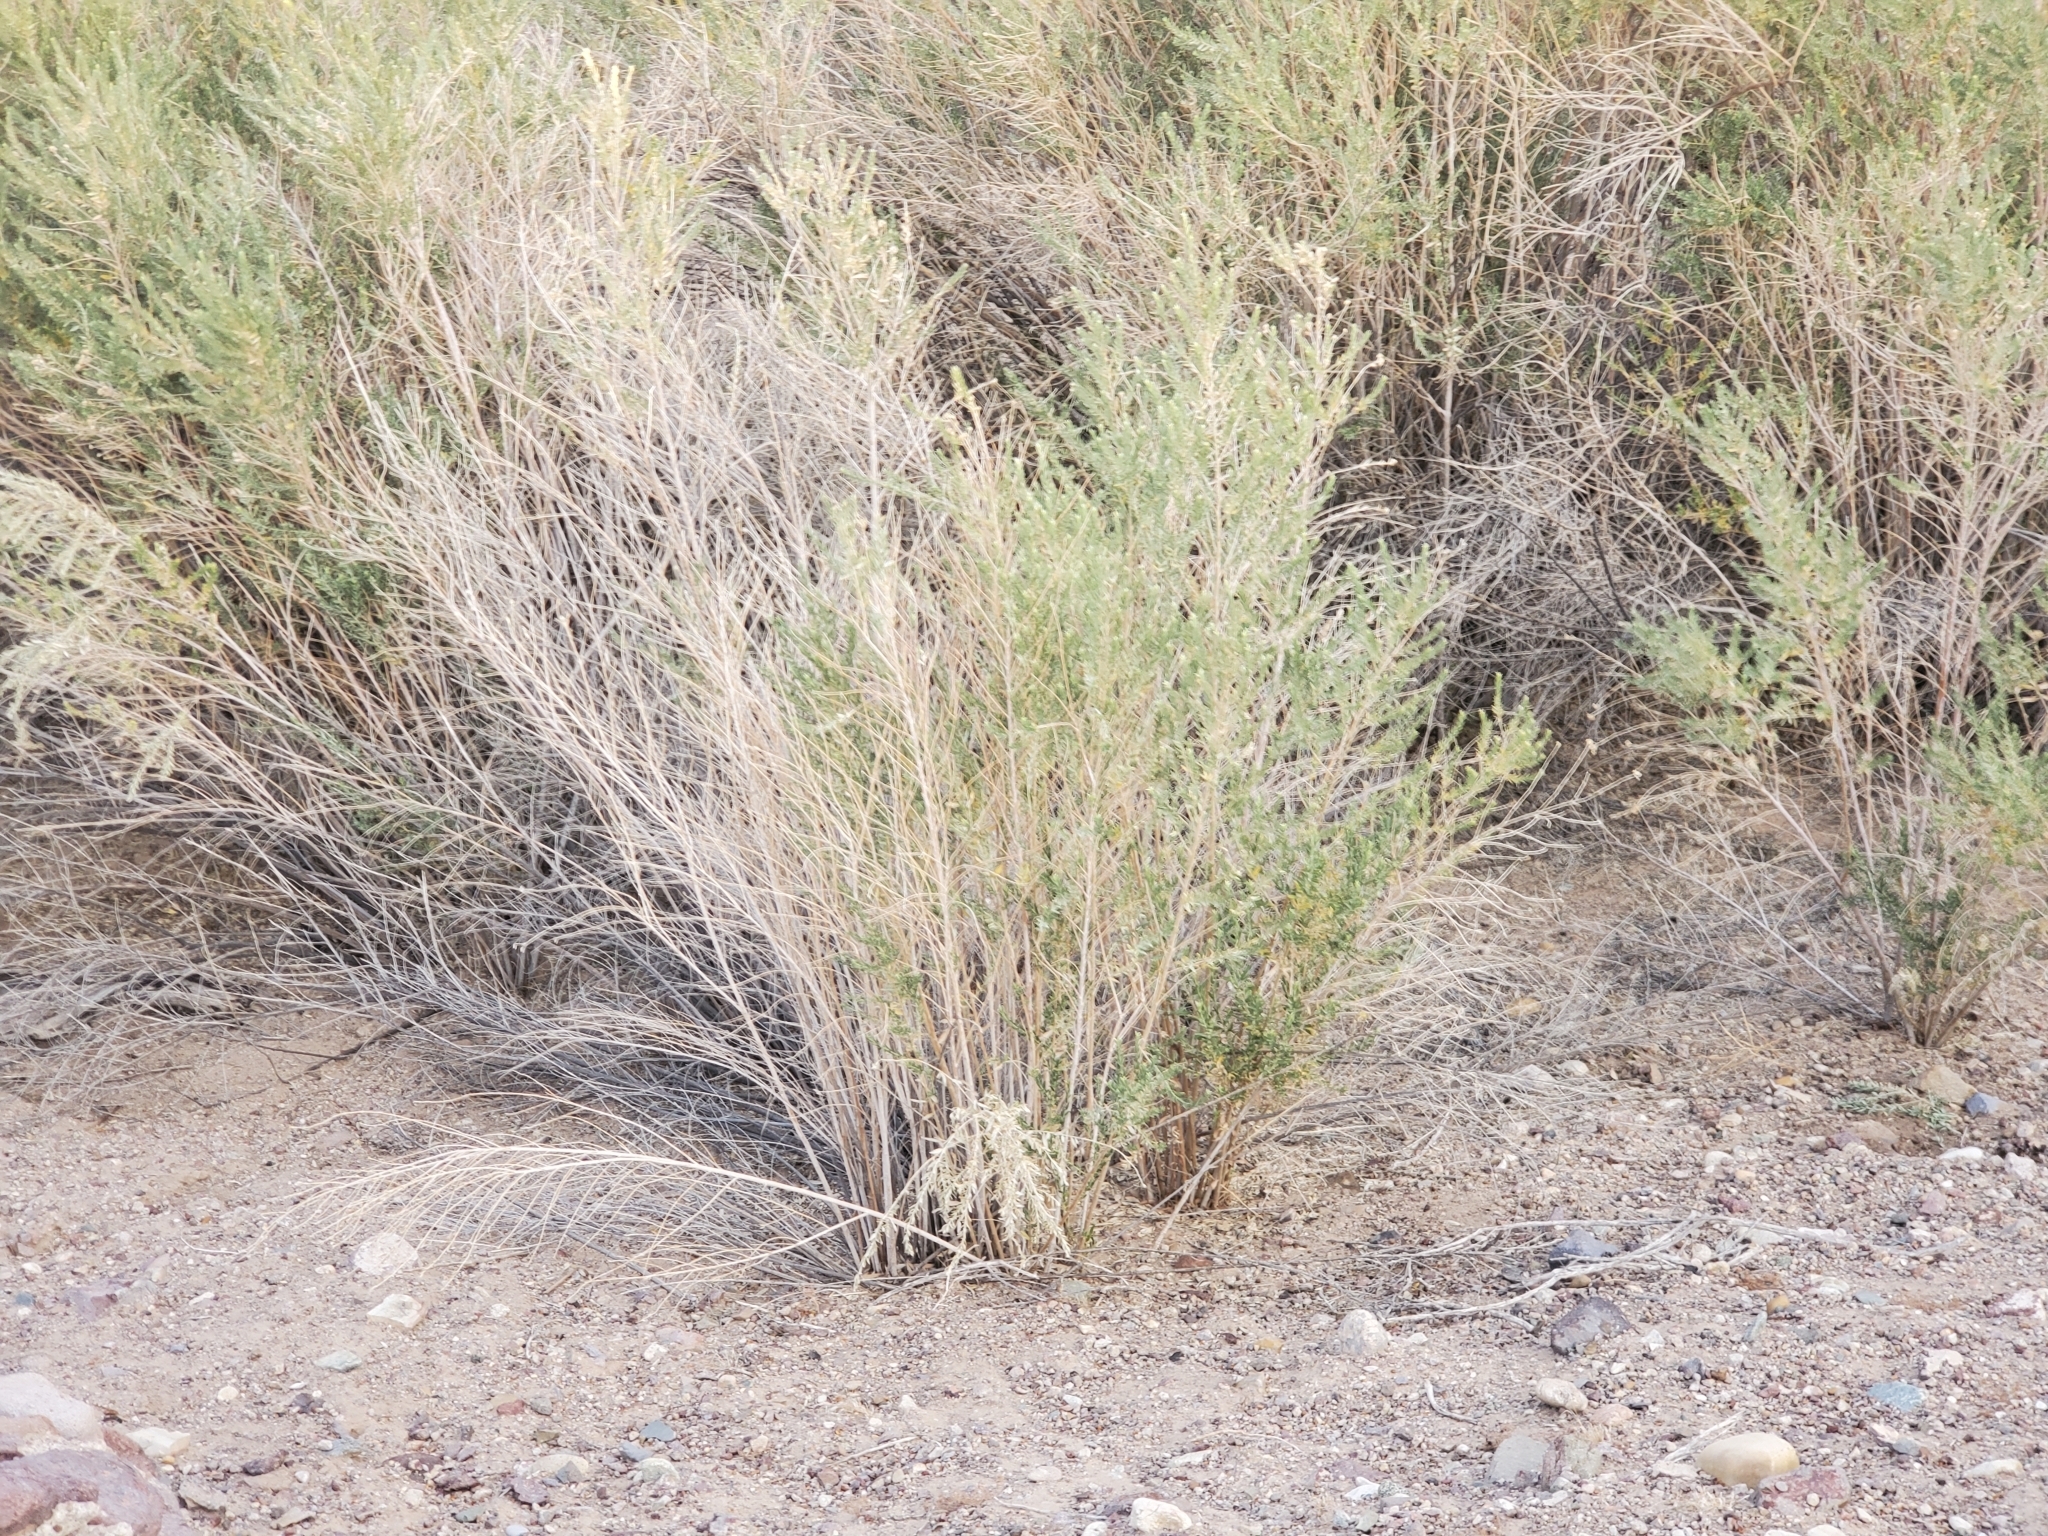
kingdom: Plantae
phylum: Tracheophyta
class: Magnoliopsida
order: Asterales
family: Asteraceae
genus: Pluchea
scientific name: Pluchea sericea
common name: Arrow-weed
